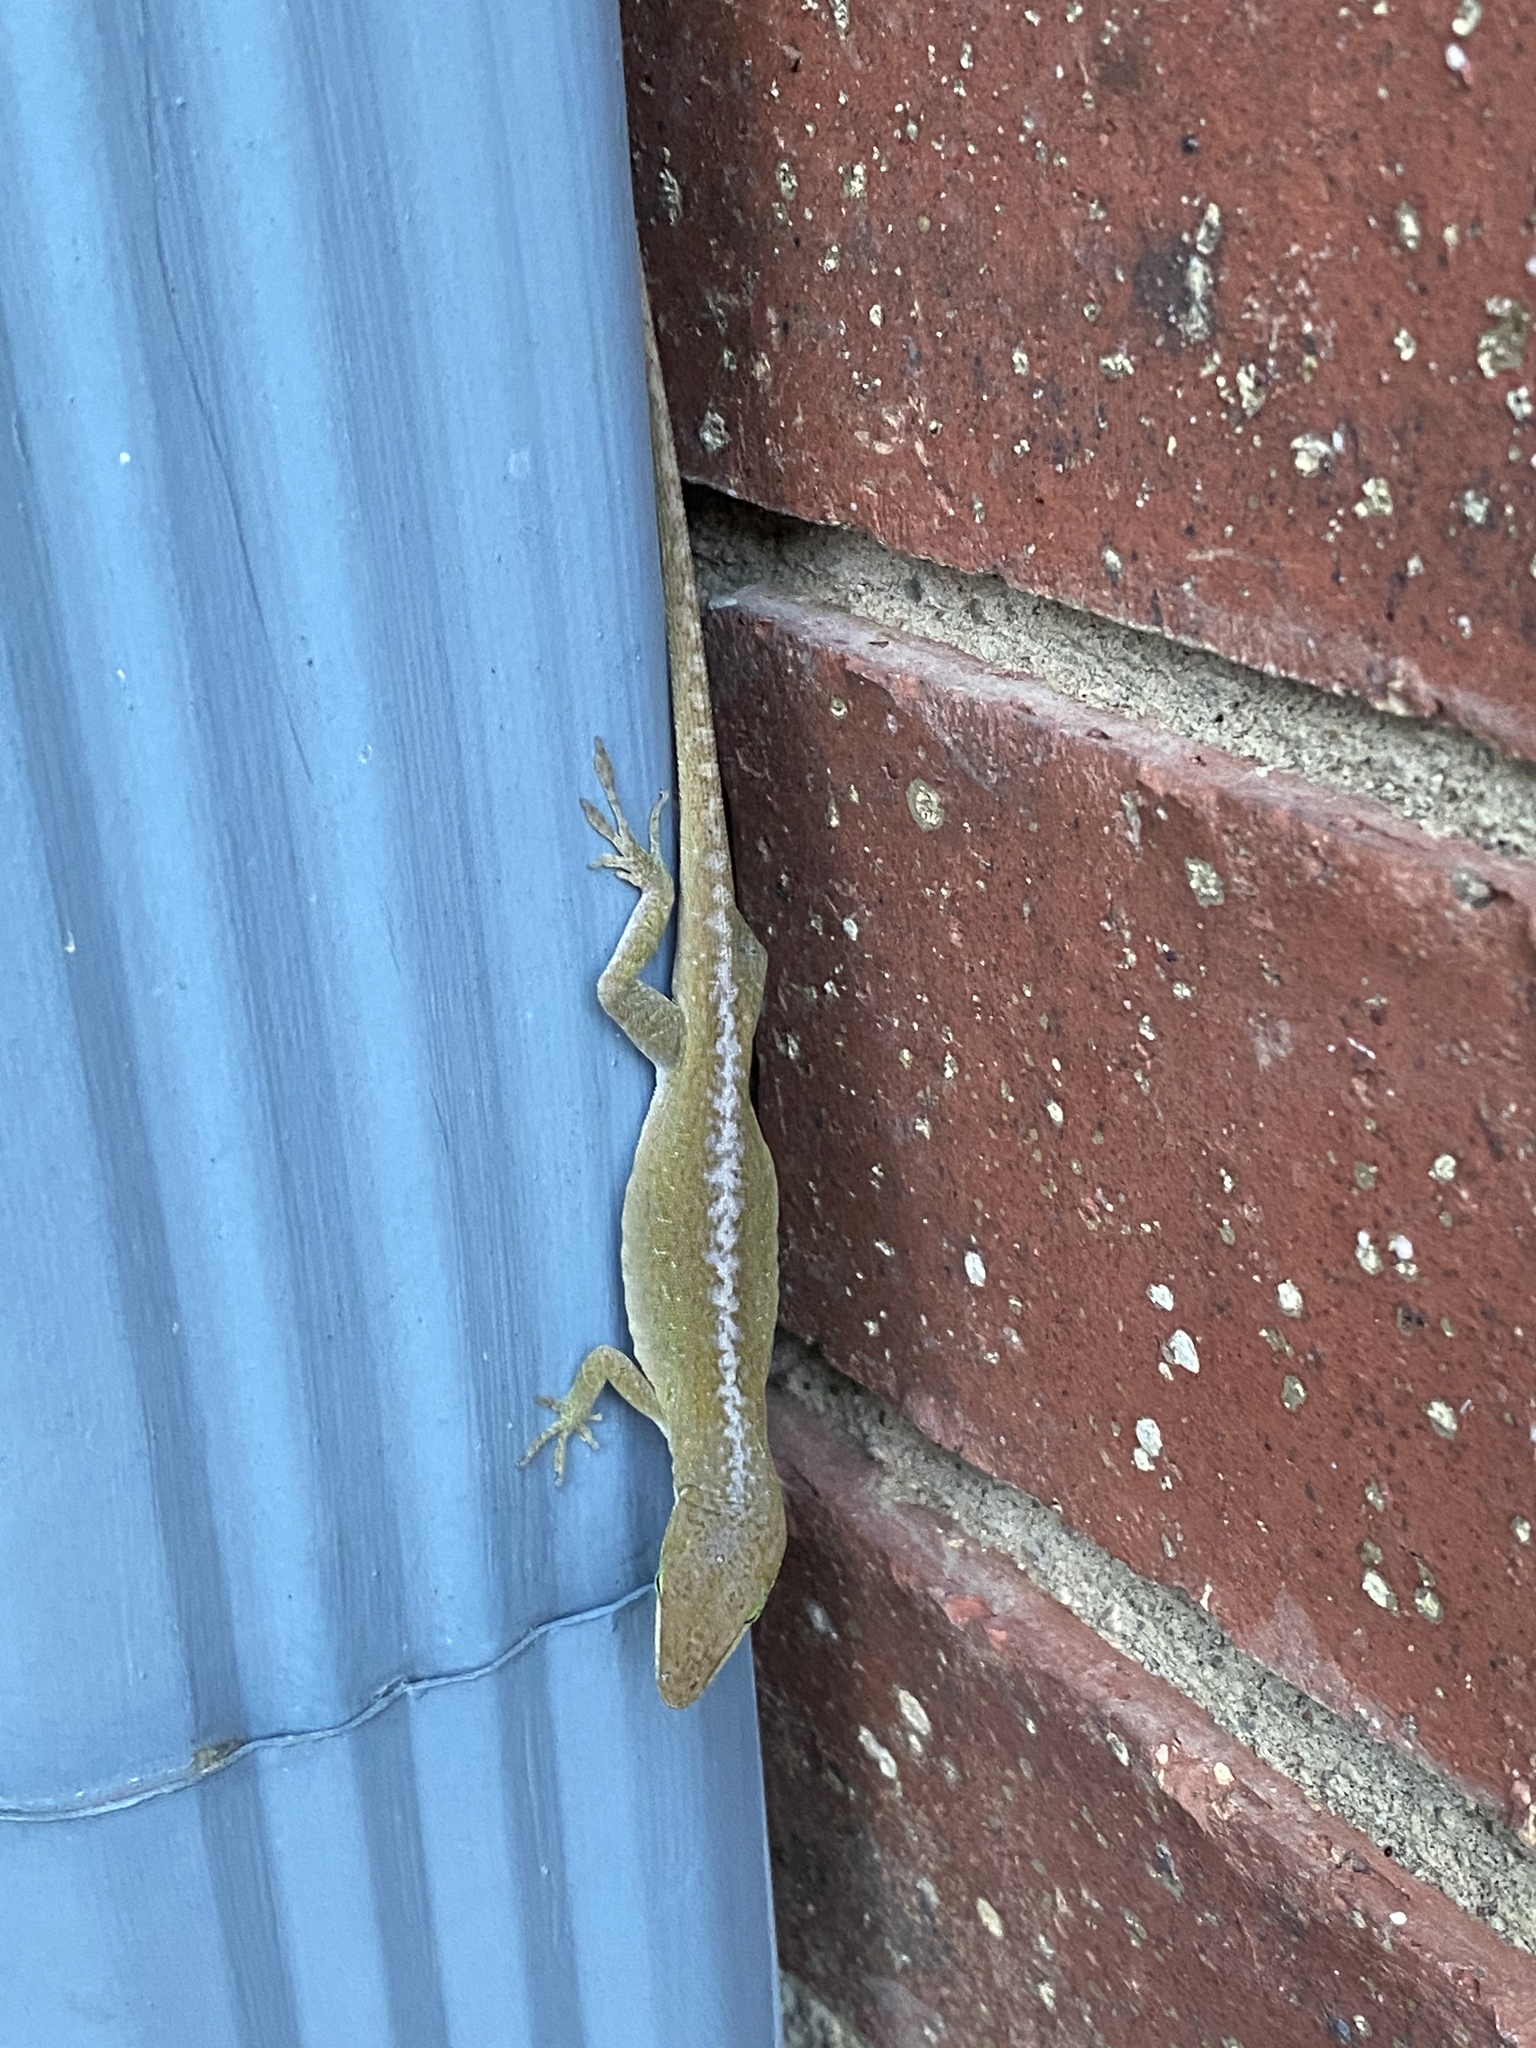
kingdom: Animalia
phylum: Chordata
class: Squamata
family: Dactyloidae
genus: Anolis
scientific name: Anolis carolinensis
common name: Green anole
